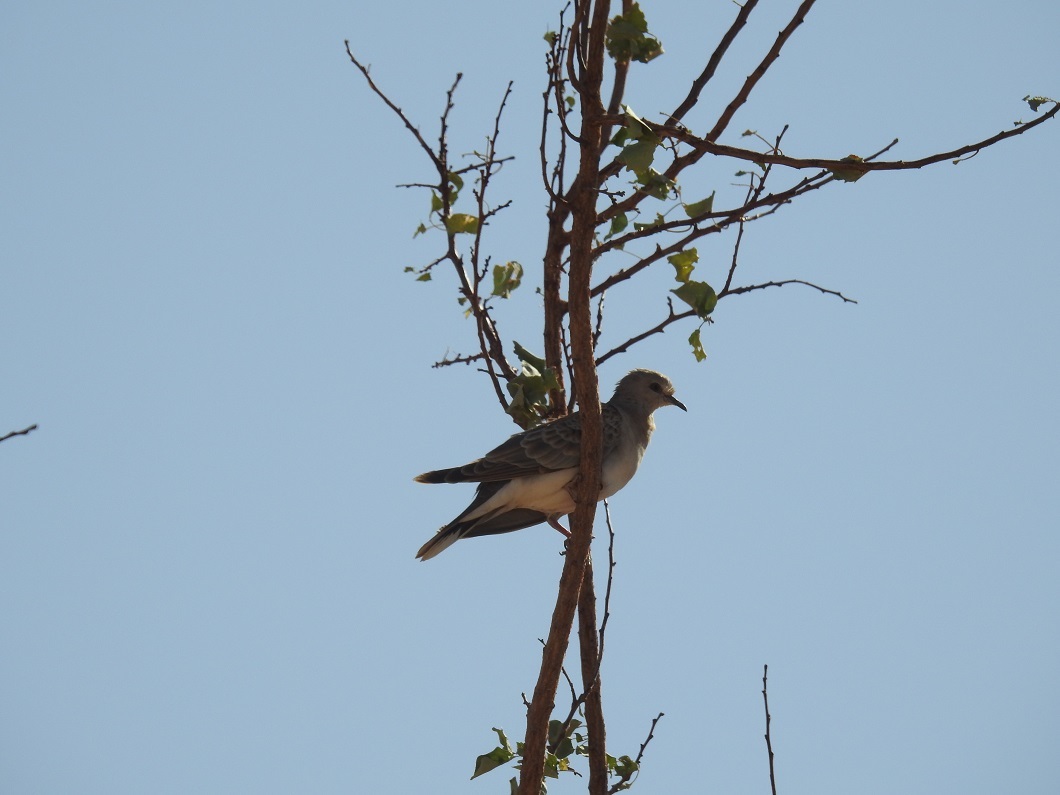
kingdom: Animalia
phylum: Chordata
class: Aves
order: Columbiformes
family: Columbidae
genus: Streptopelia
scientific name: Streptopelia turtur
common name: European turtle dove
